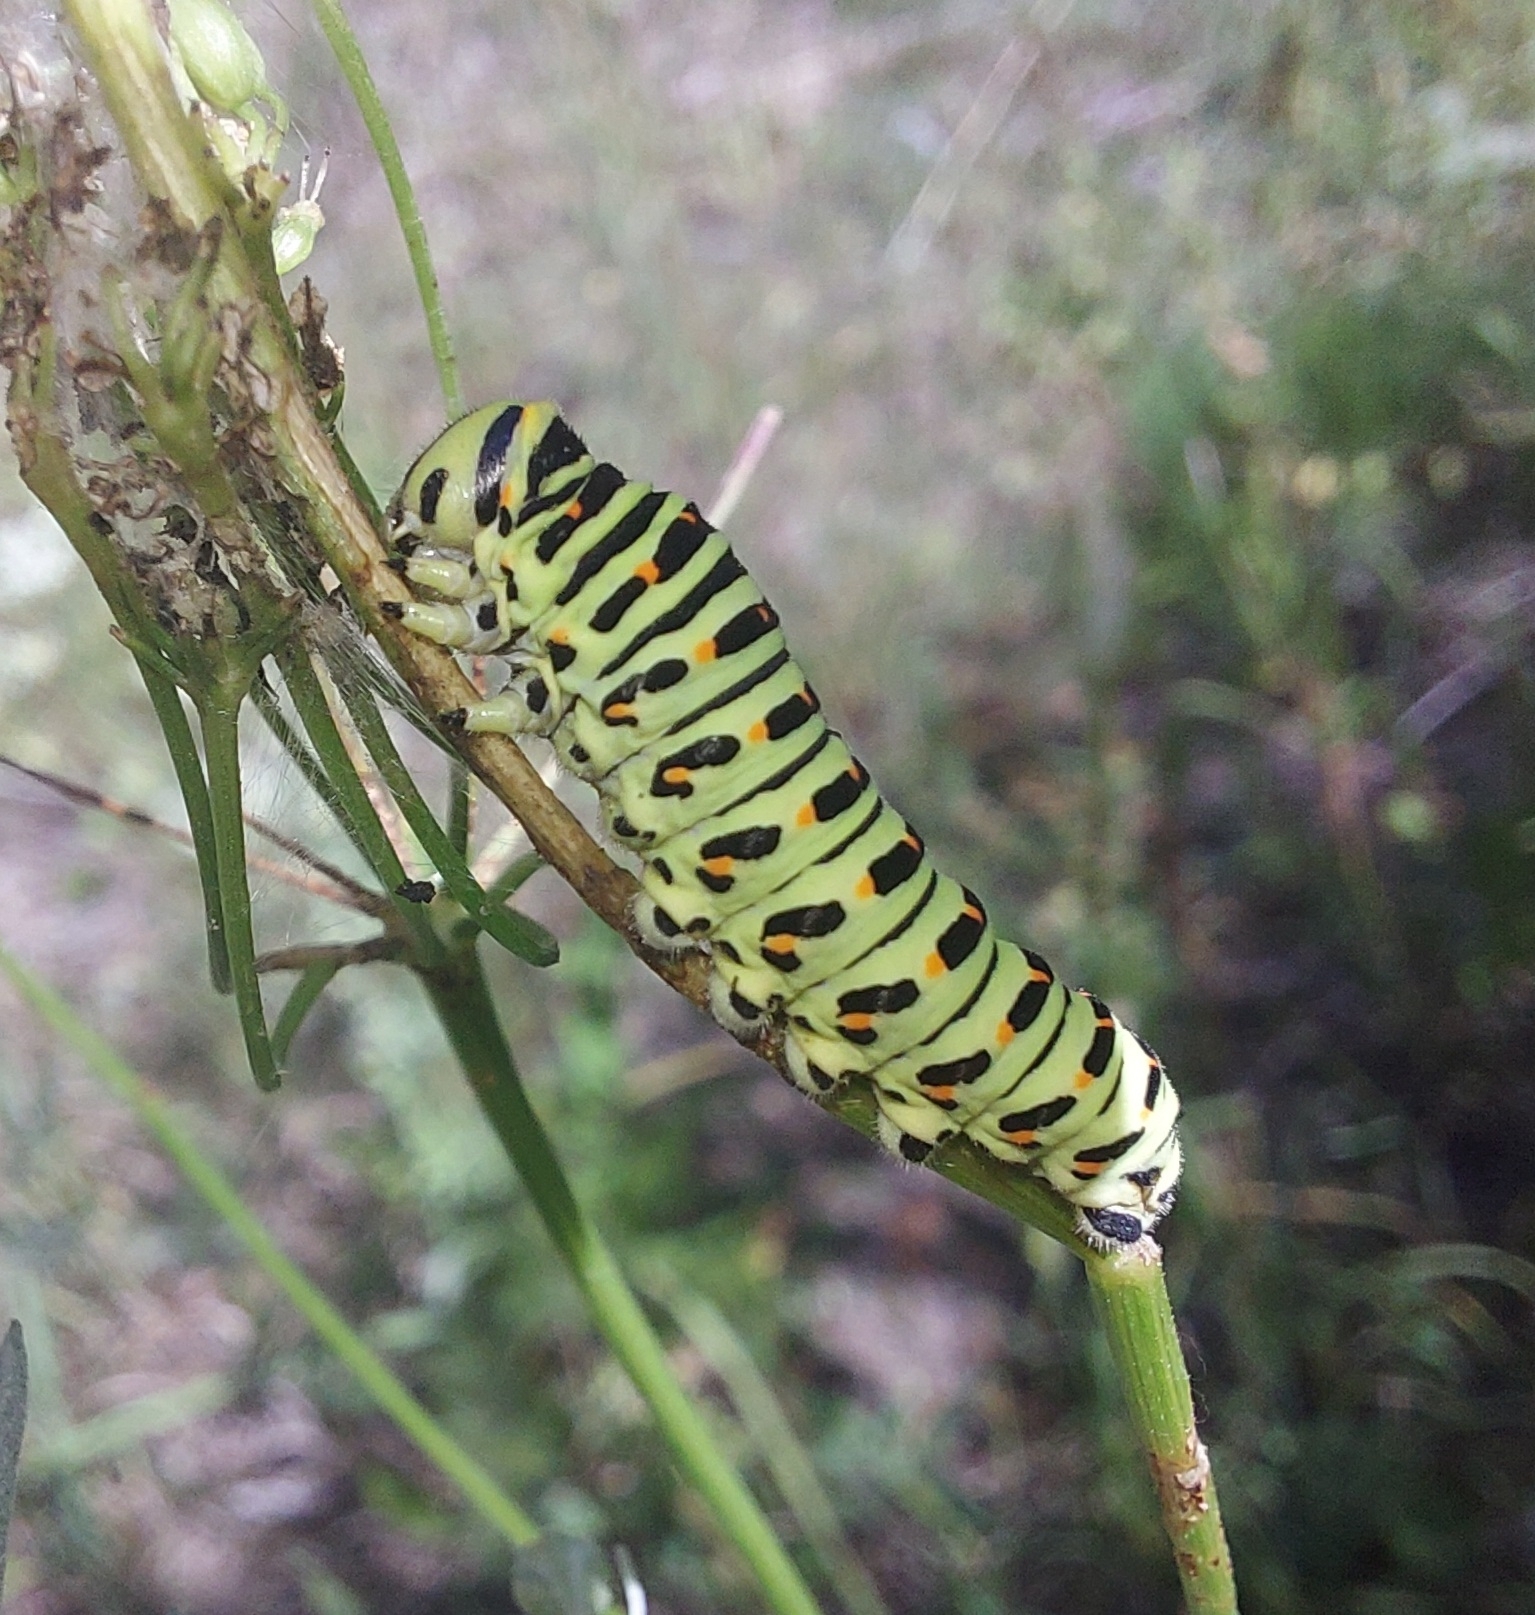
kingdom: Animalia
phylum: Arthropoda
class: Insecta
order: Lepidoptera
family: Papilionidae
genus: Papilio
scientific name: Papilio machaon
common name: Swallowtail
